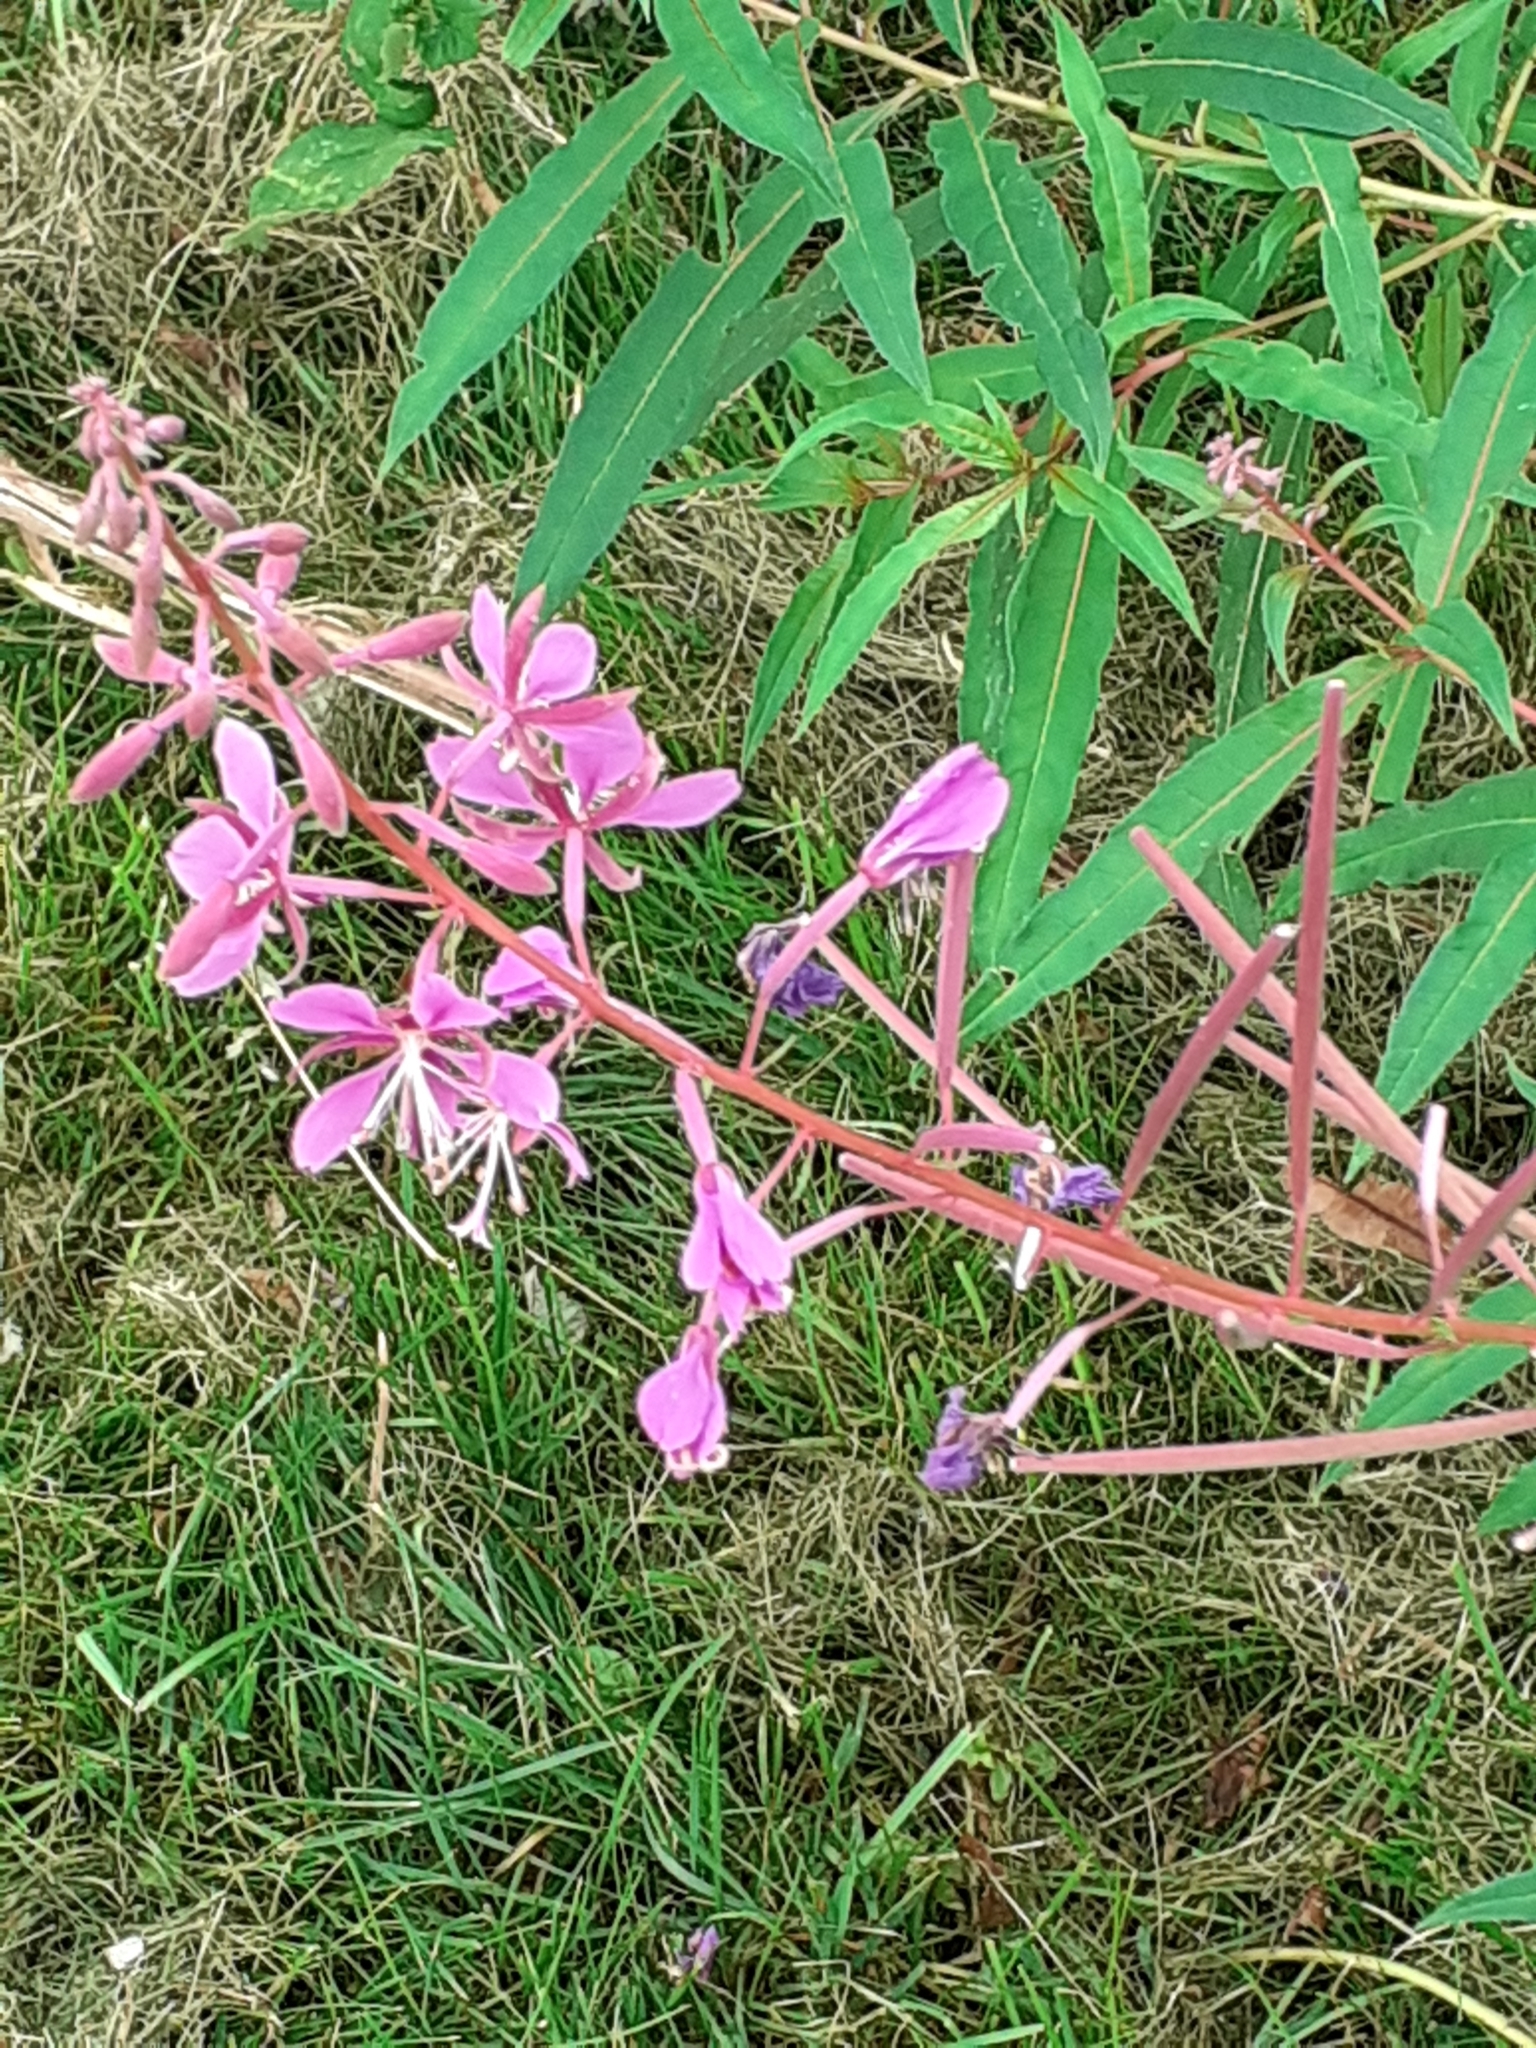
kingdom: Plantae
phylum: Tracheophyta
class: Magnoliopsida
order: Myrtales
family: Onagraceae
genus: Chamaenerion
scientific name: Chamaenerion angustifolium
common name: Fireweed
